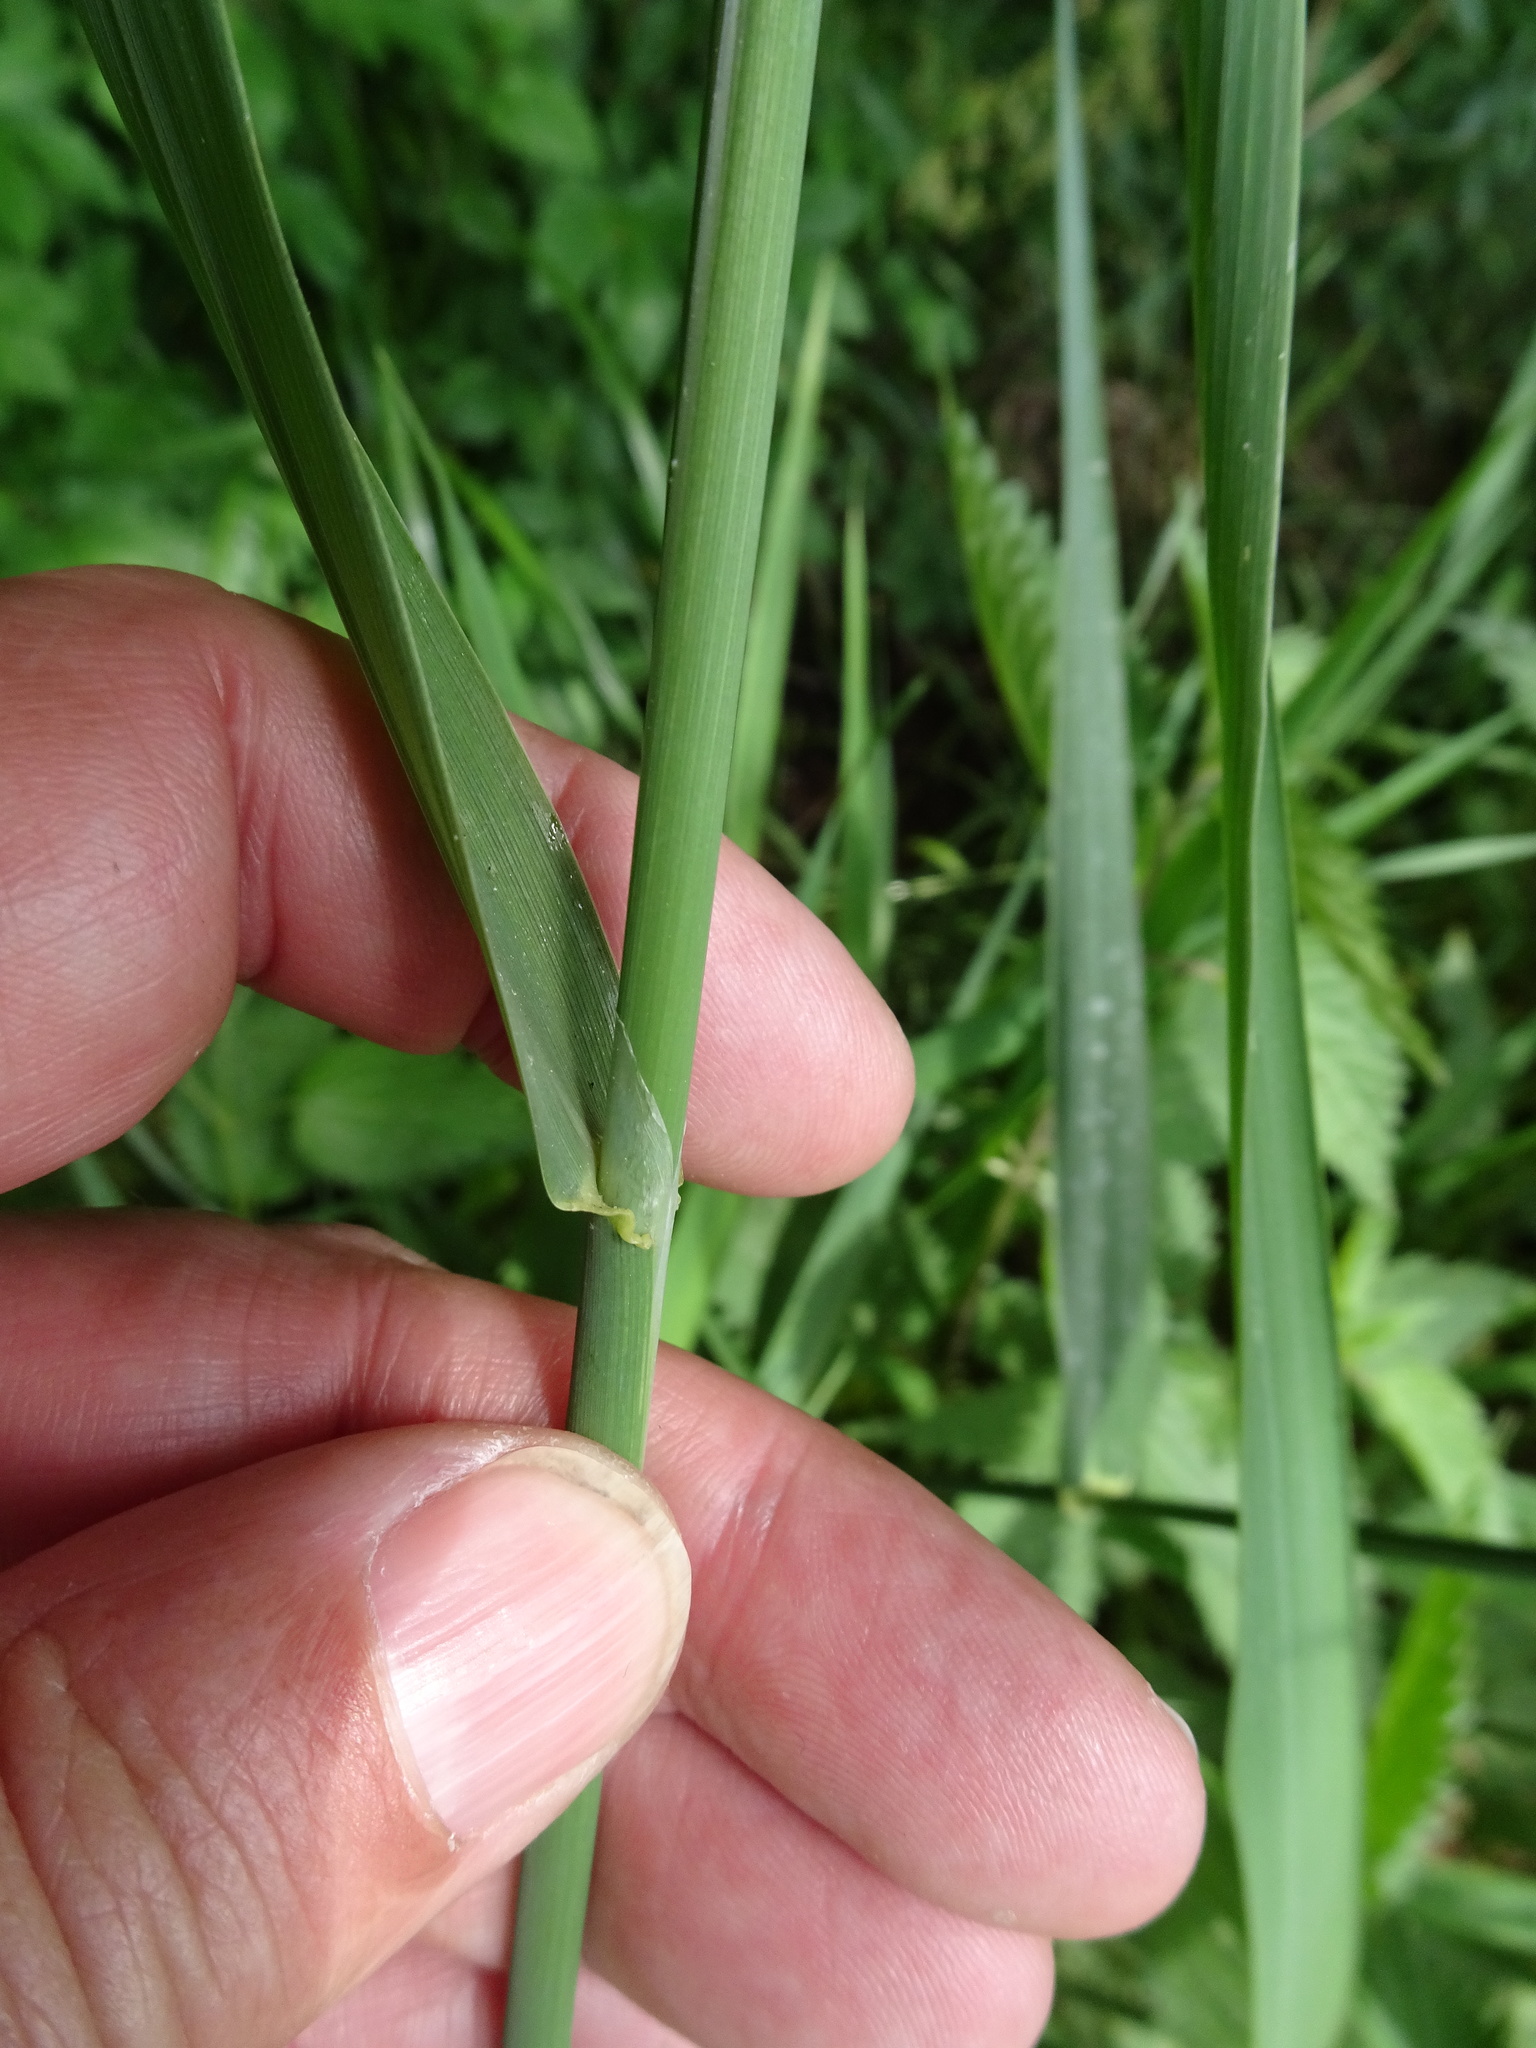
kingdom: Plantae
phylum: Tracheophyta
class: Liliopsida
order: Poales
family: Poaceae
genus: Phalaris
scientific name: Phalaris arundinacea
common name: Reed canary-grass
